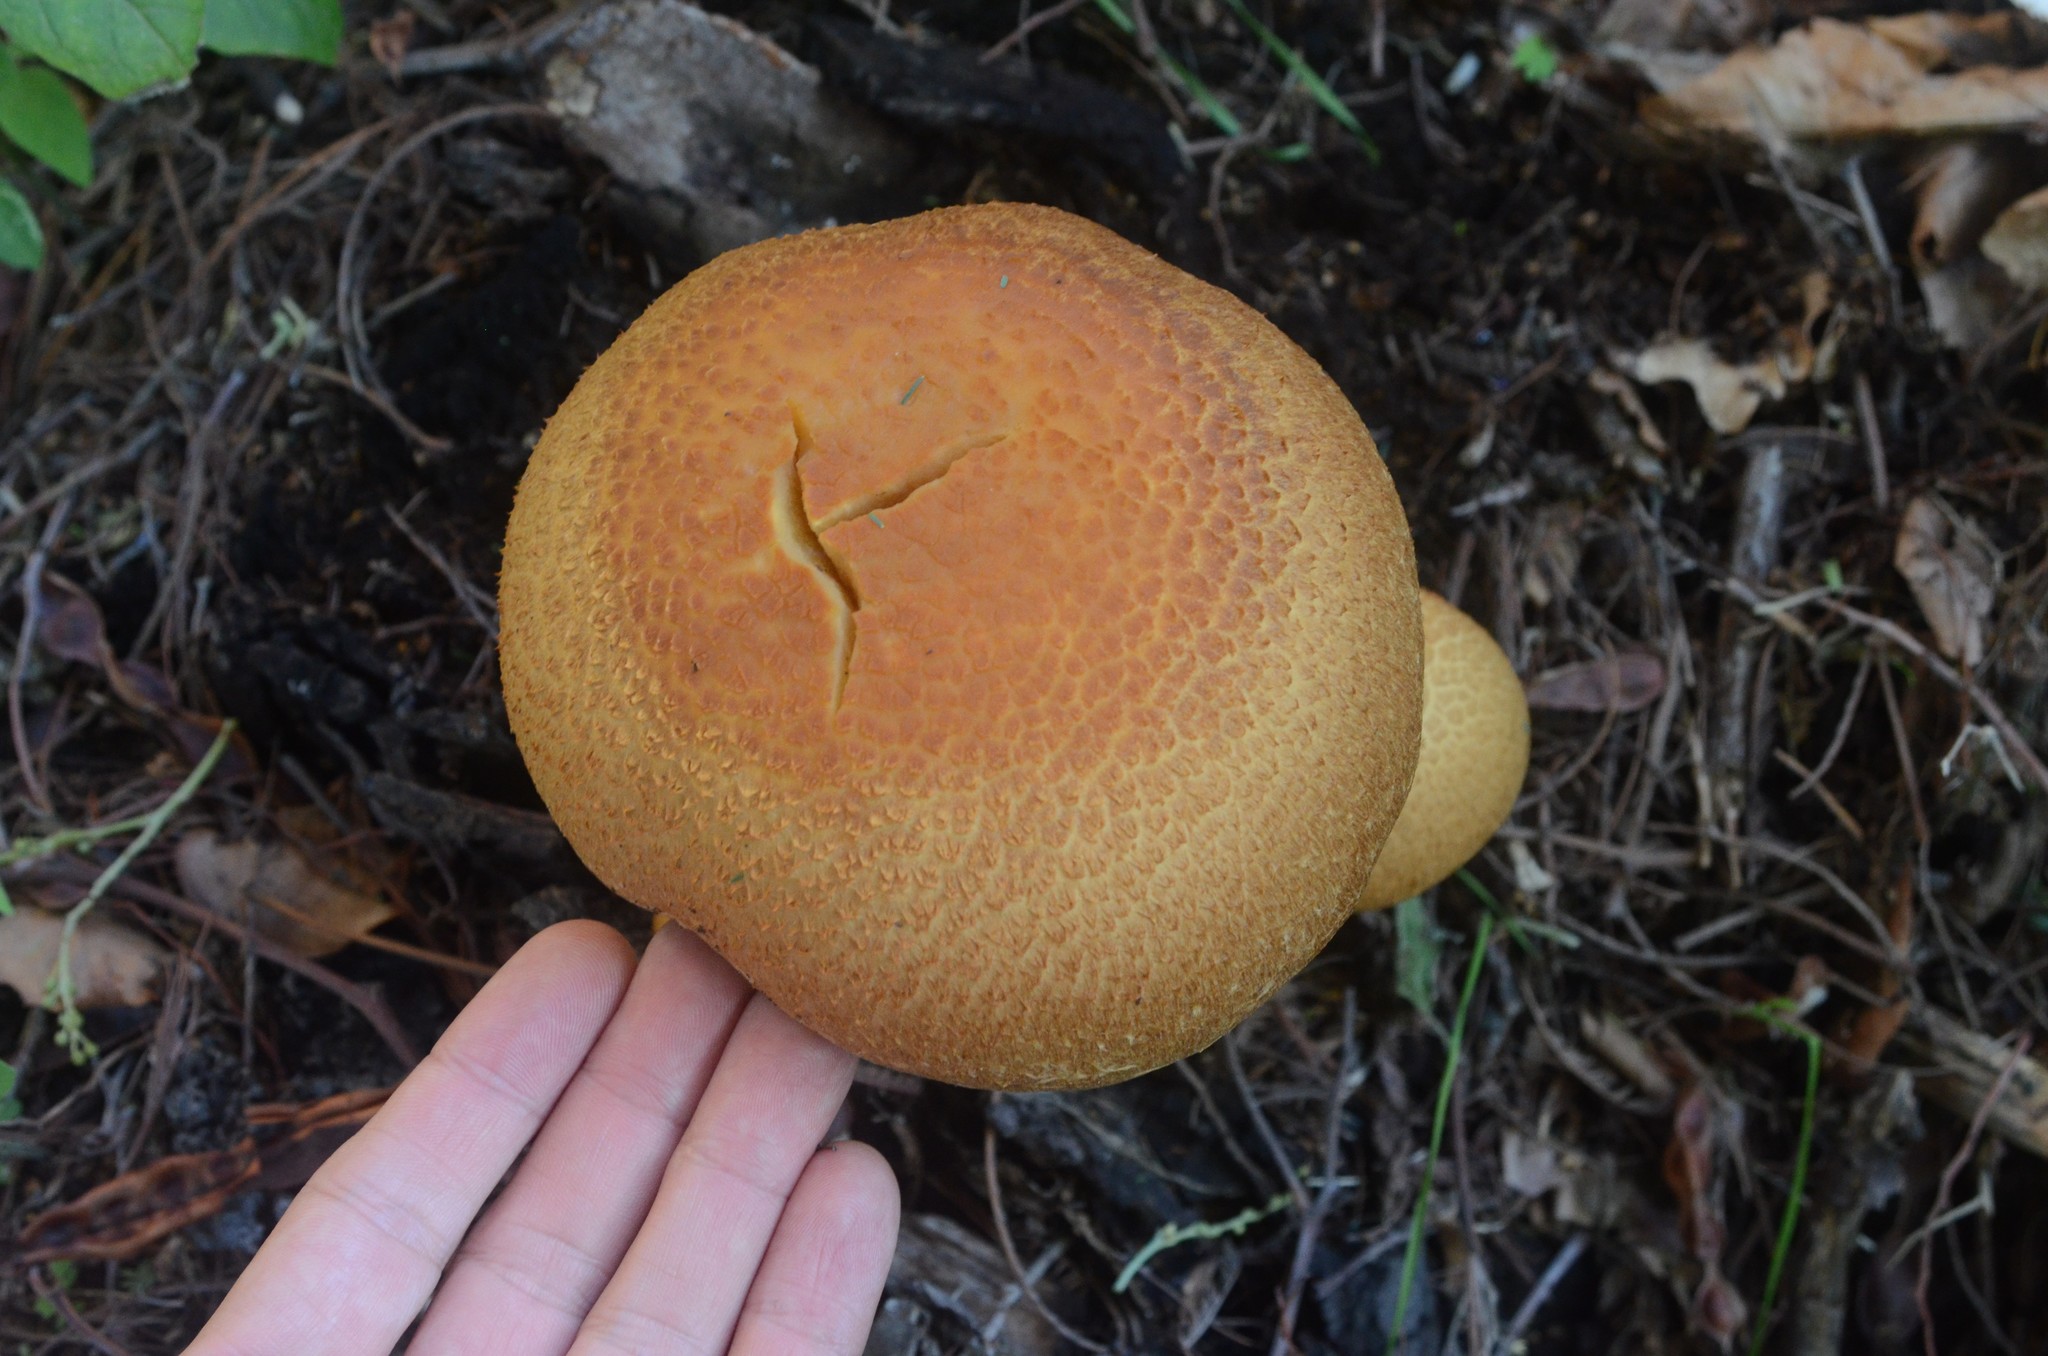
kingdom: Fungi
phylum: Basidiomycota
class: Agaricomycetes
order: Agaricales
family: Hymenogastraceae
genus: Gymnopilus
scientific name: Gymnopilus junonius
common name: Spectacular rustgill
